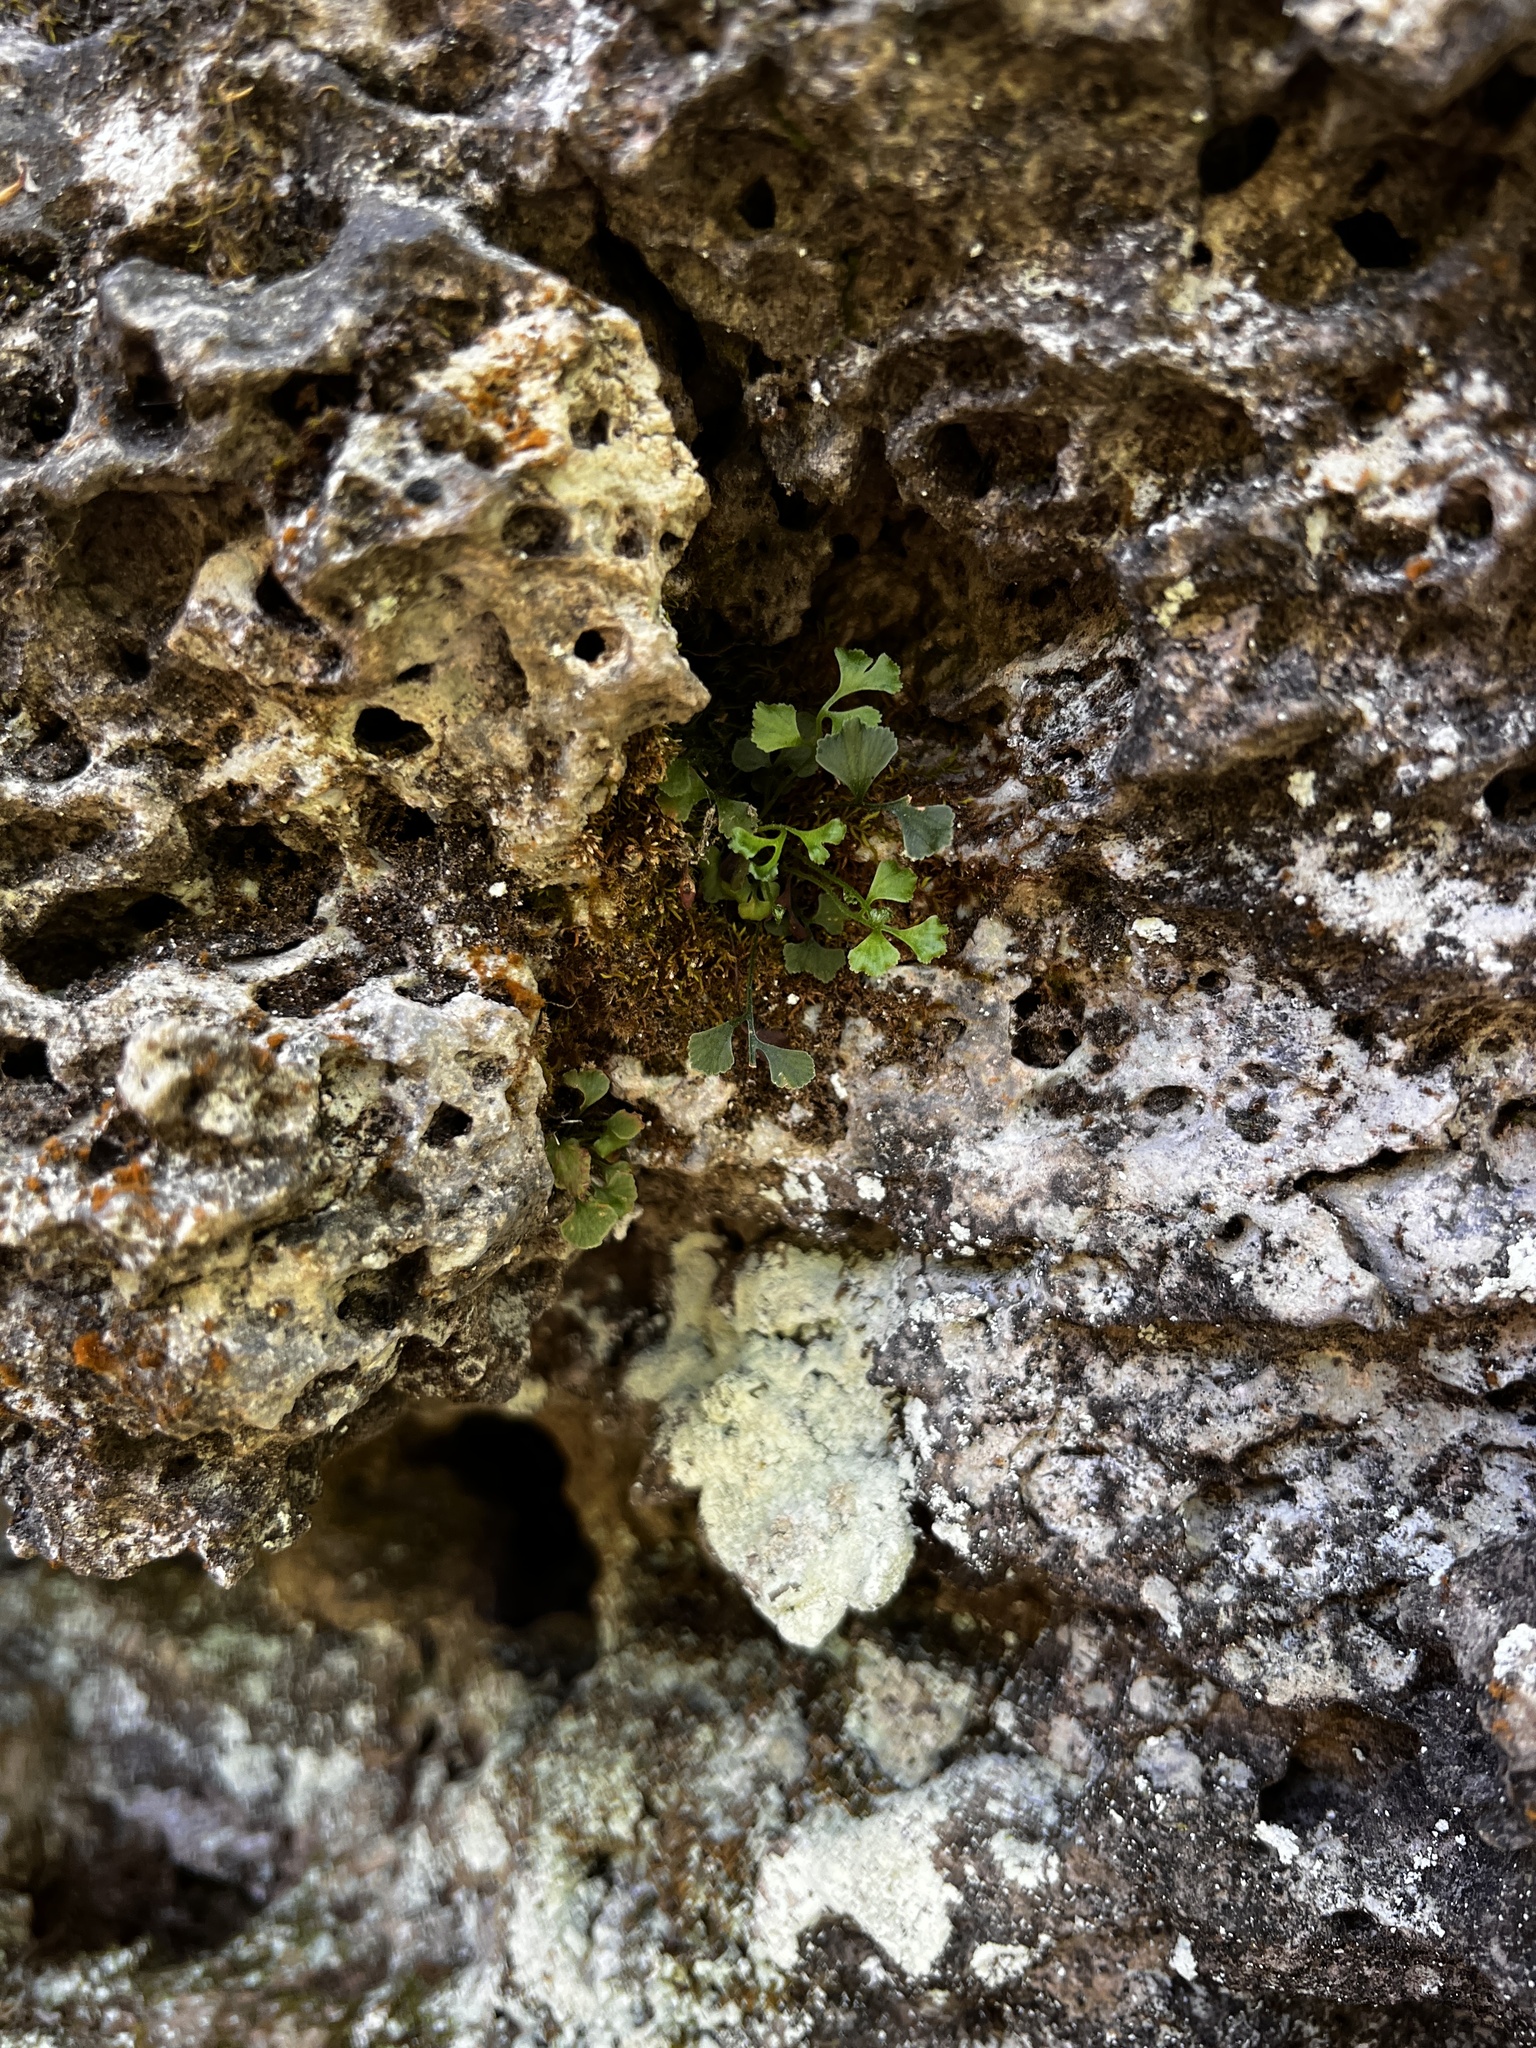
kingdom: Plantae
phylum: Tracheophyta
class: Polypodiopsida
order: Polypodiales
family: Aspleniaceae
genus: Asplenium
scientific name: Asplenium ruta-muraria
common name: Wall-rue
